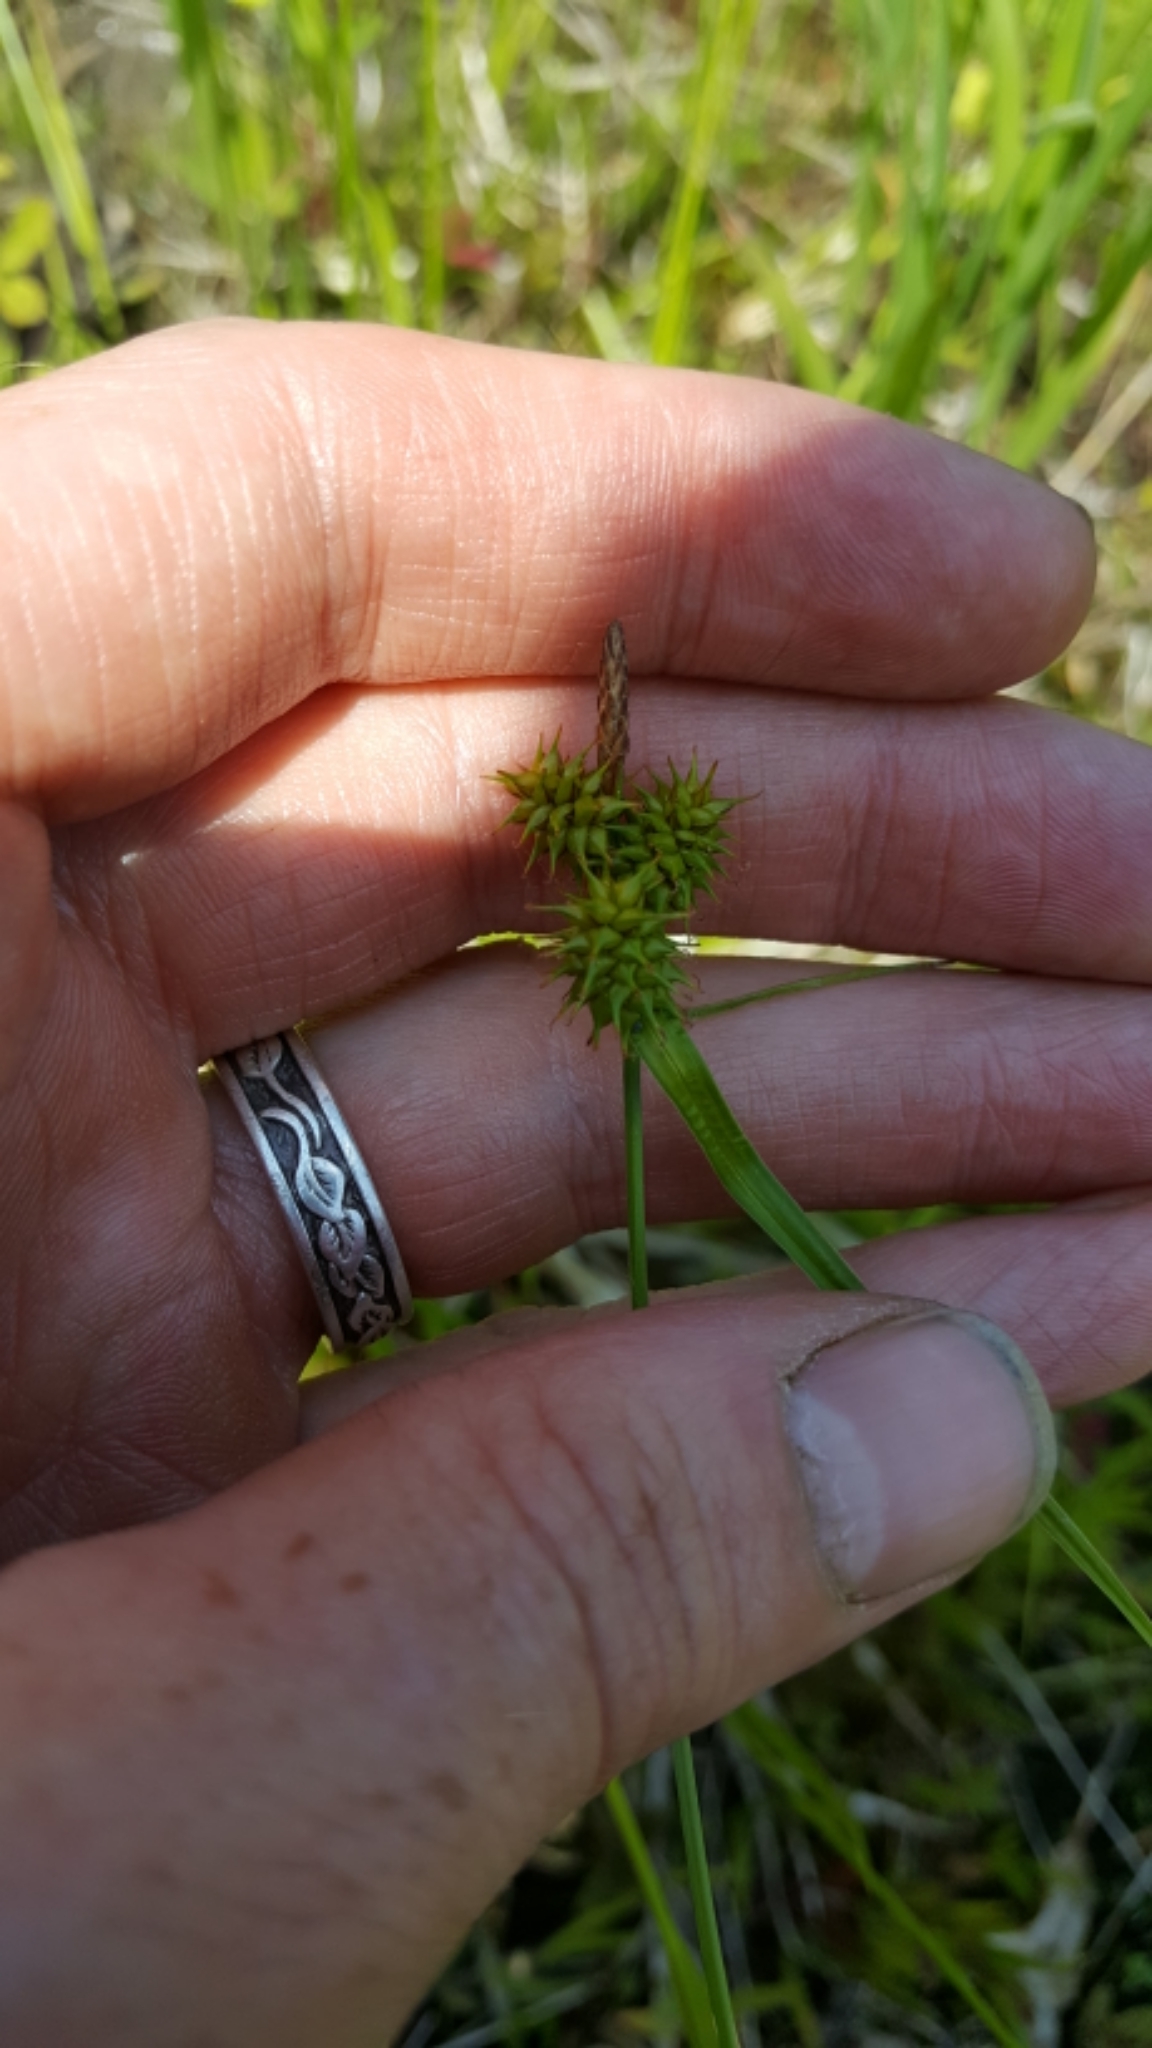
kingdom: Plantae
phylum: Tracheophyta
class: Liliopsida
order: Poales
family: Cyperaceae
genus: Carex
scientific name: Carex flava
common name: Large yellow-sedge
